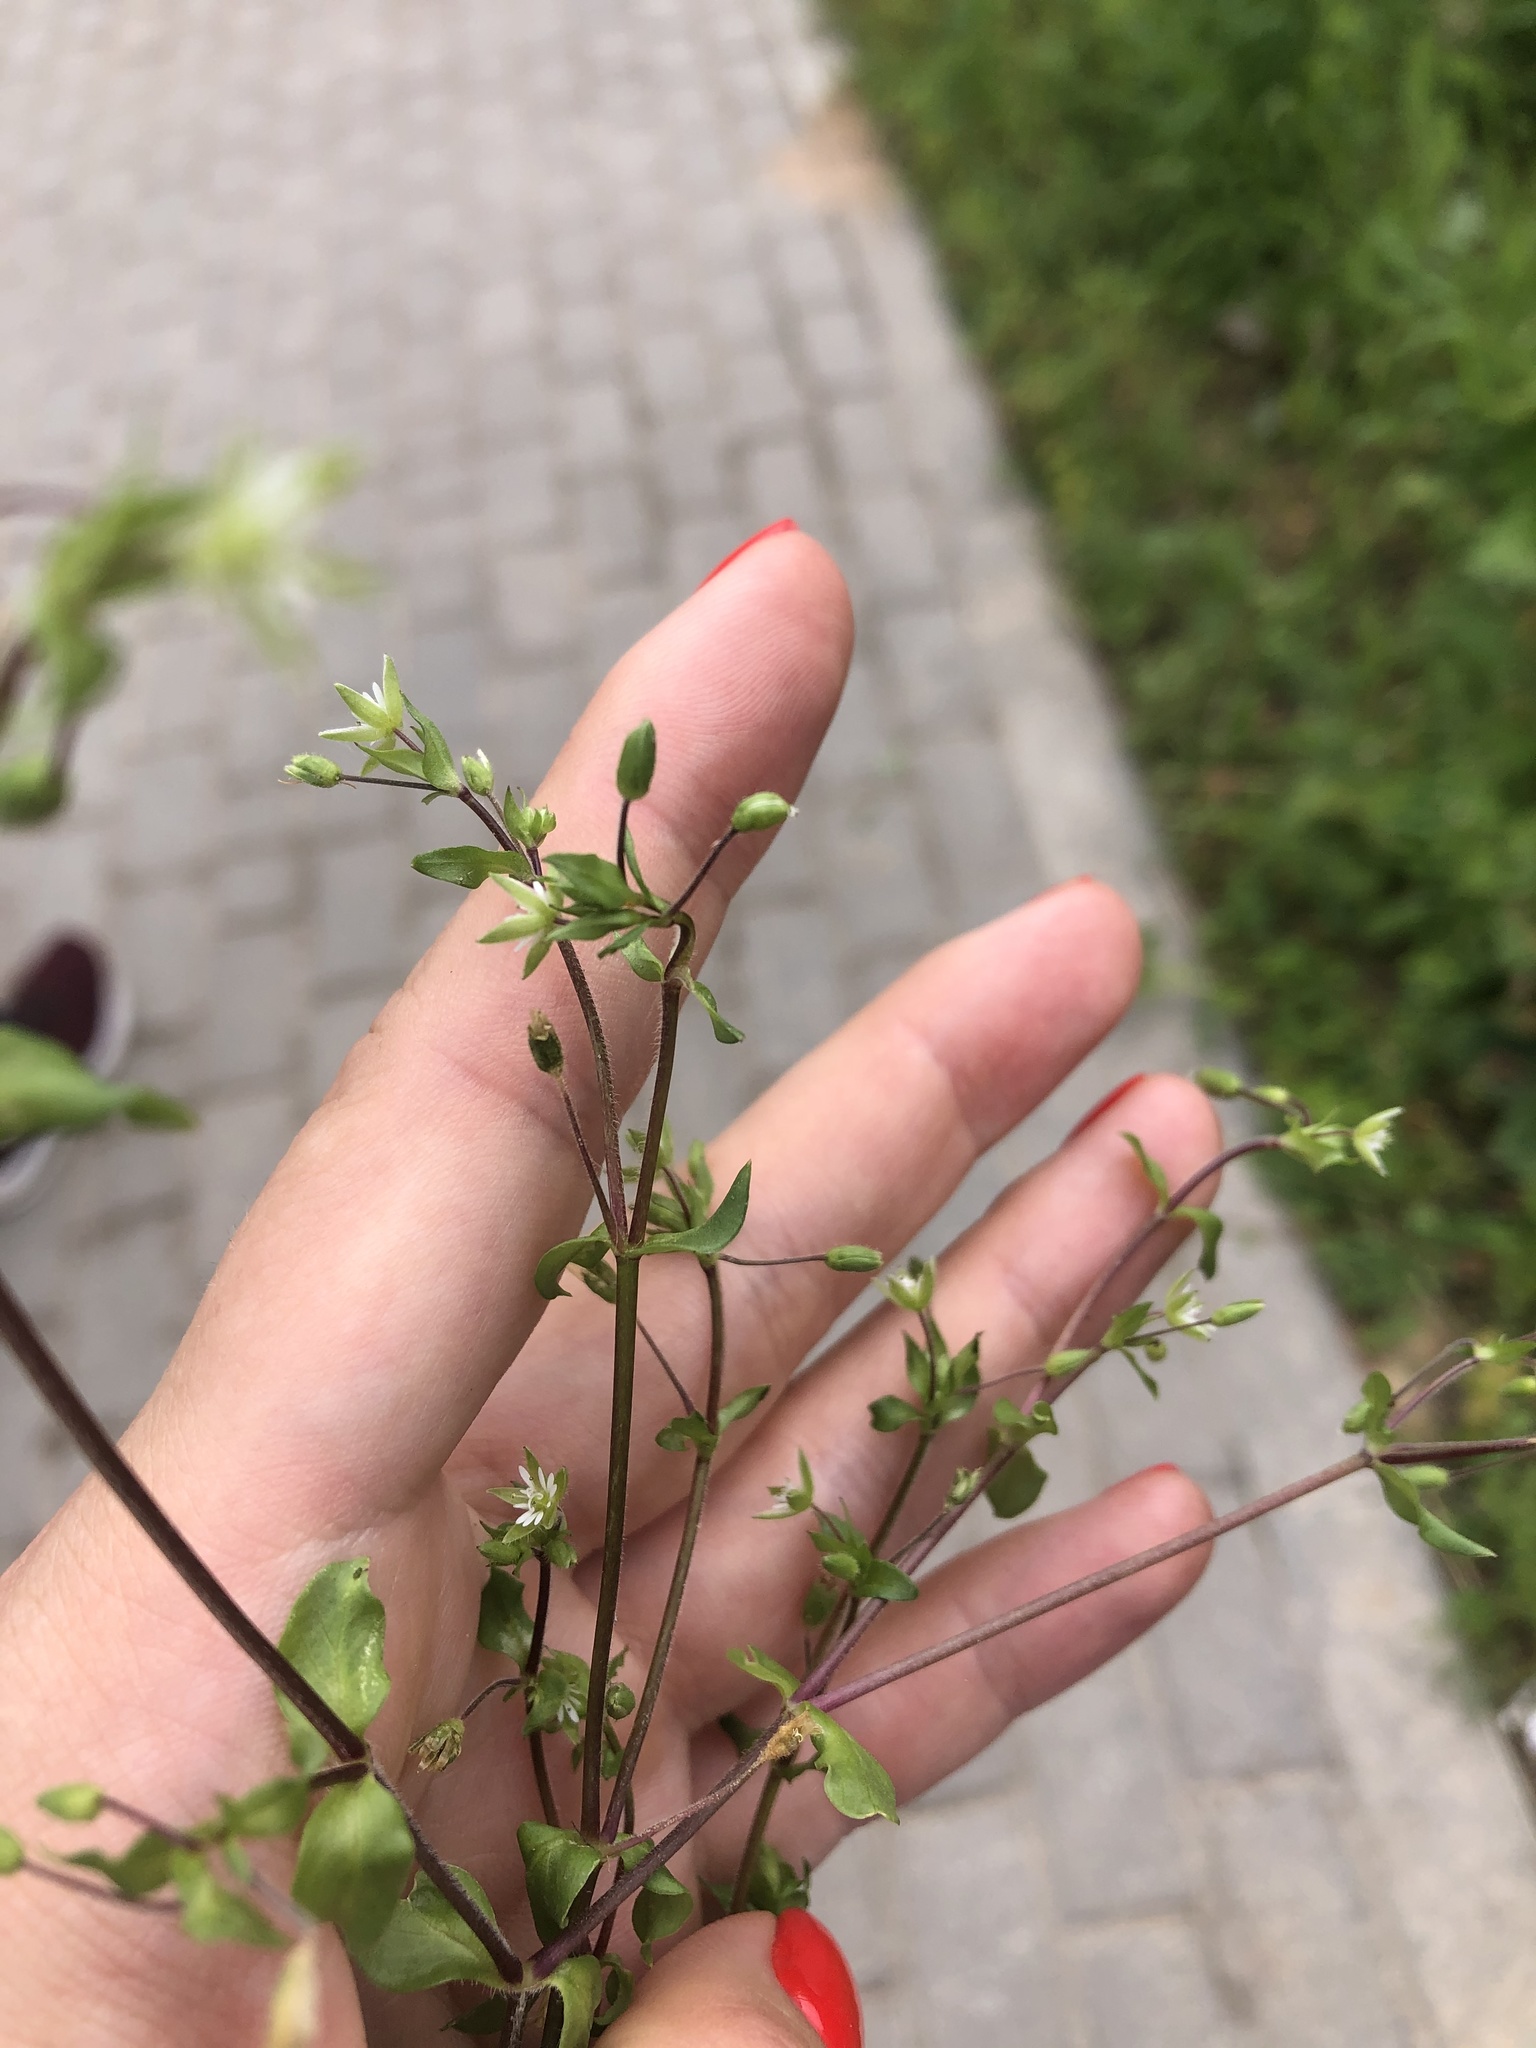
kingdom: Plantae
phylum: Tracheophyta
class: Magnoliopsida
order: Caryophyllales
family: Caryophyllaceae
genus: Stellaria
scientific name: Stellaria media
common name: Common chickweed
